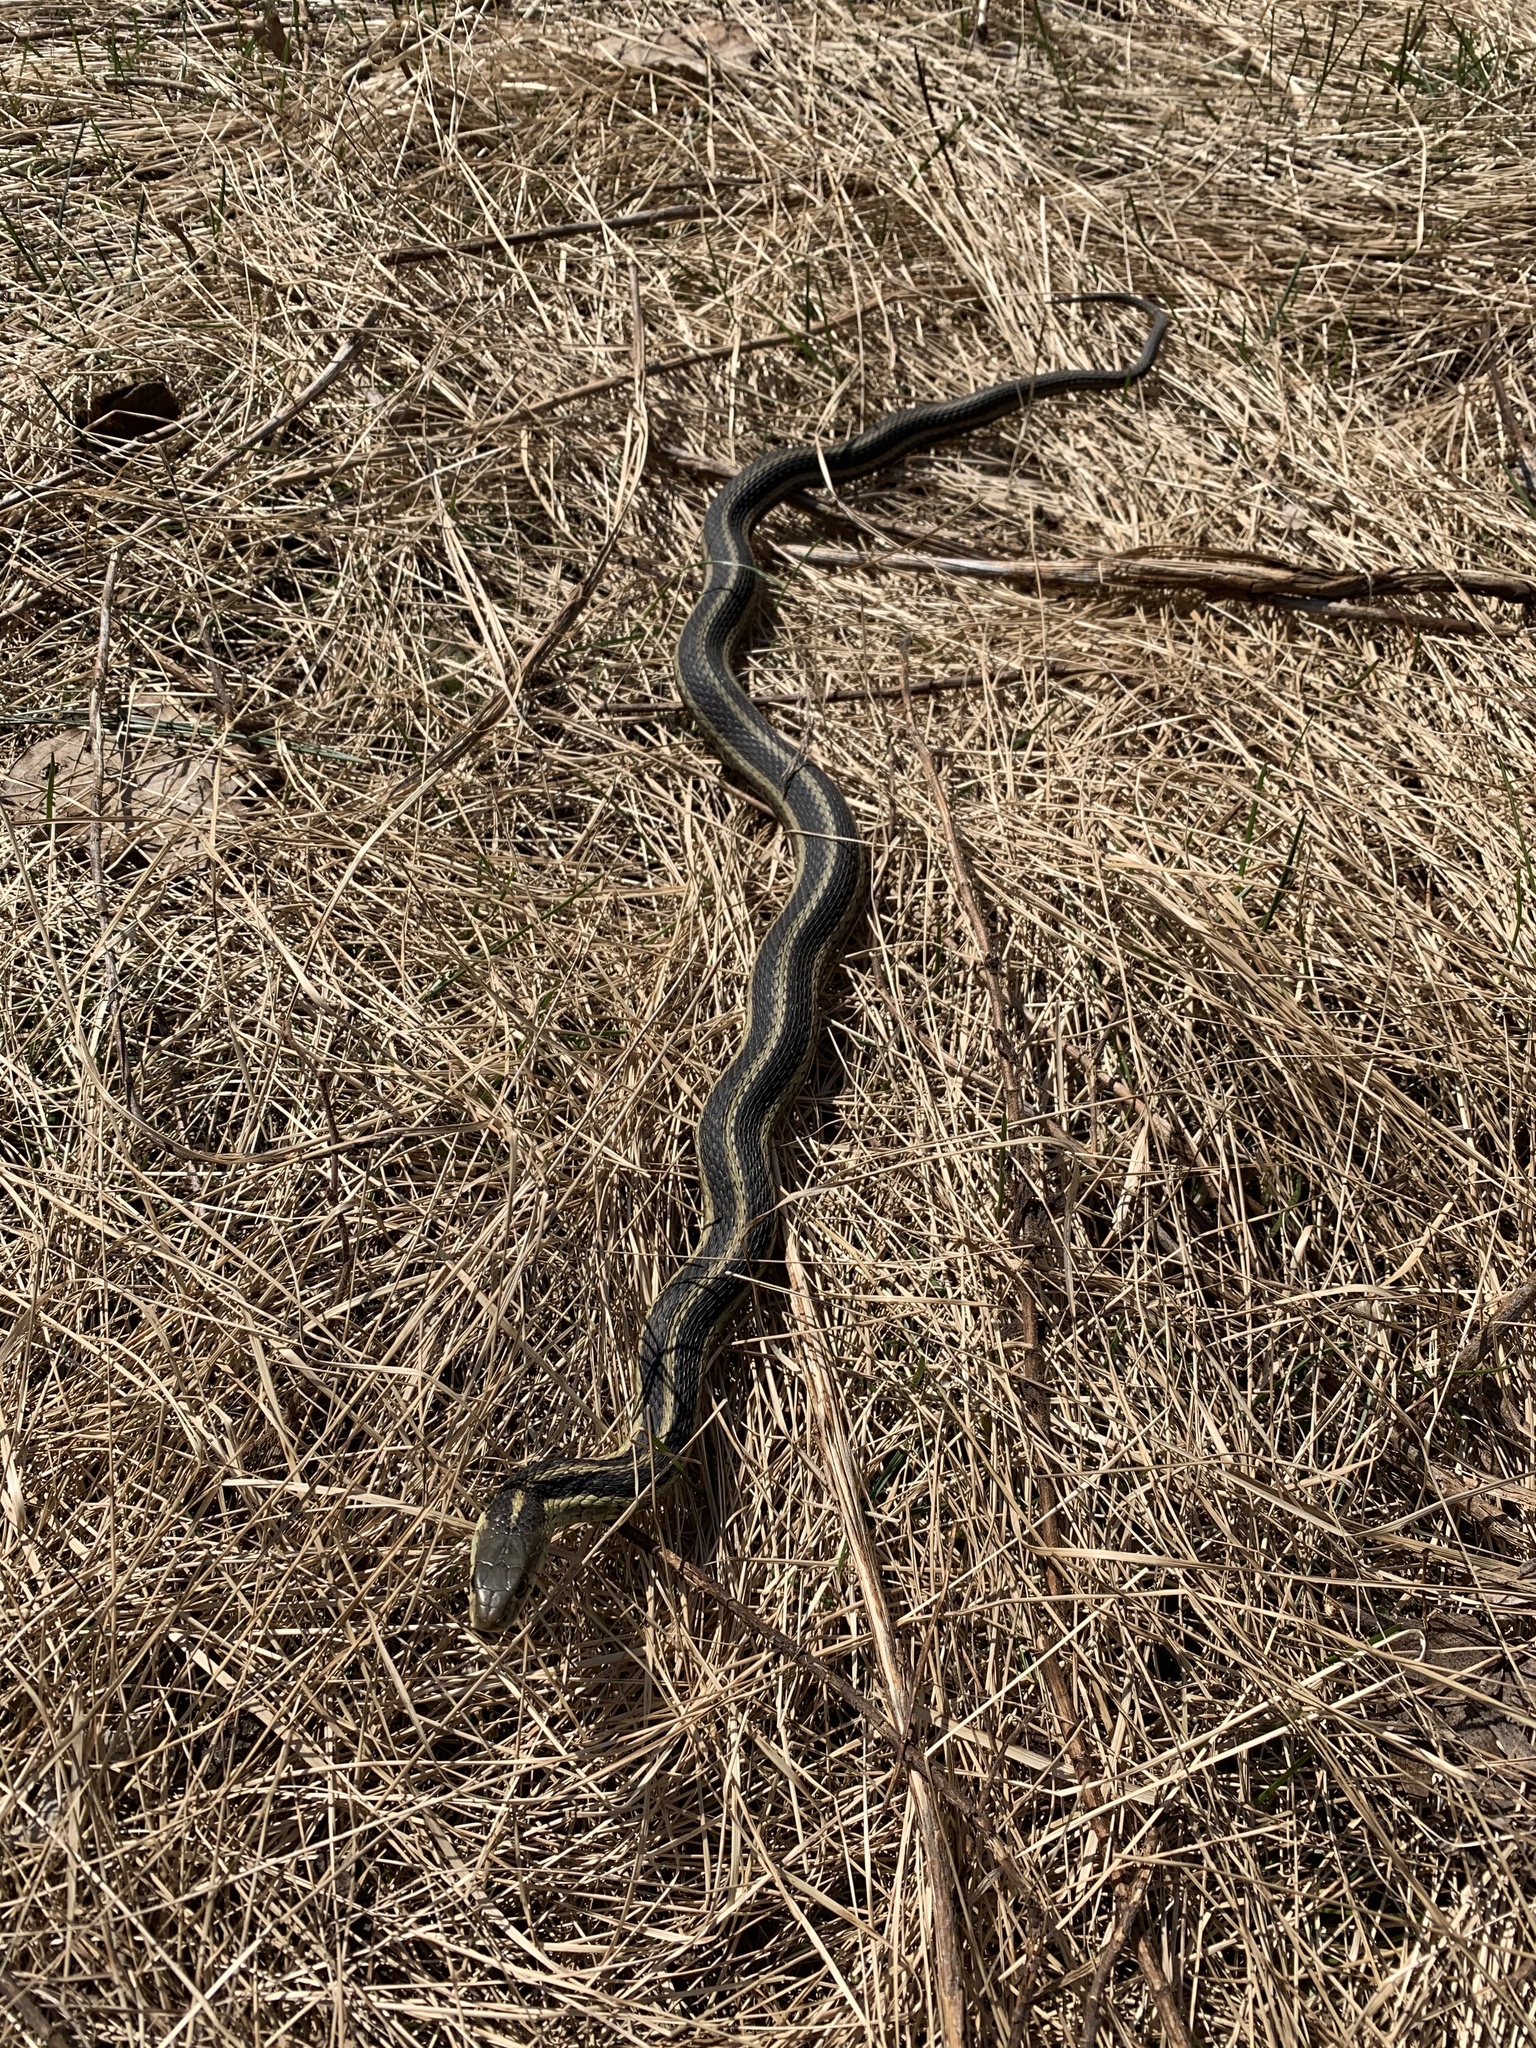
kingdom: Animalia
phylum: Chordata
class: Squamata
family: Colubridae
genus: Thamnophis
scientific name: Thamnophis sirtalis
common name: Common garter snake
